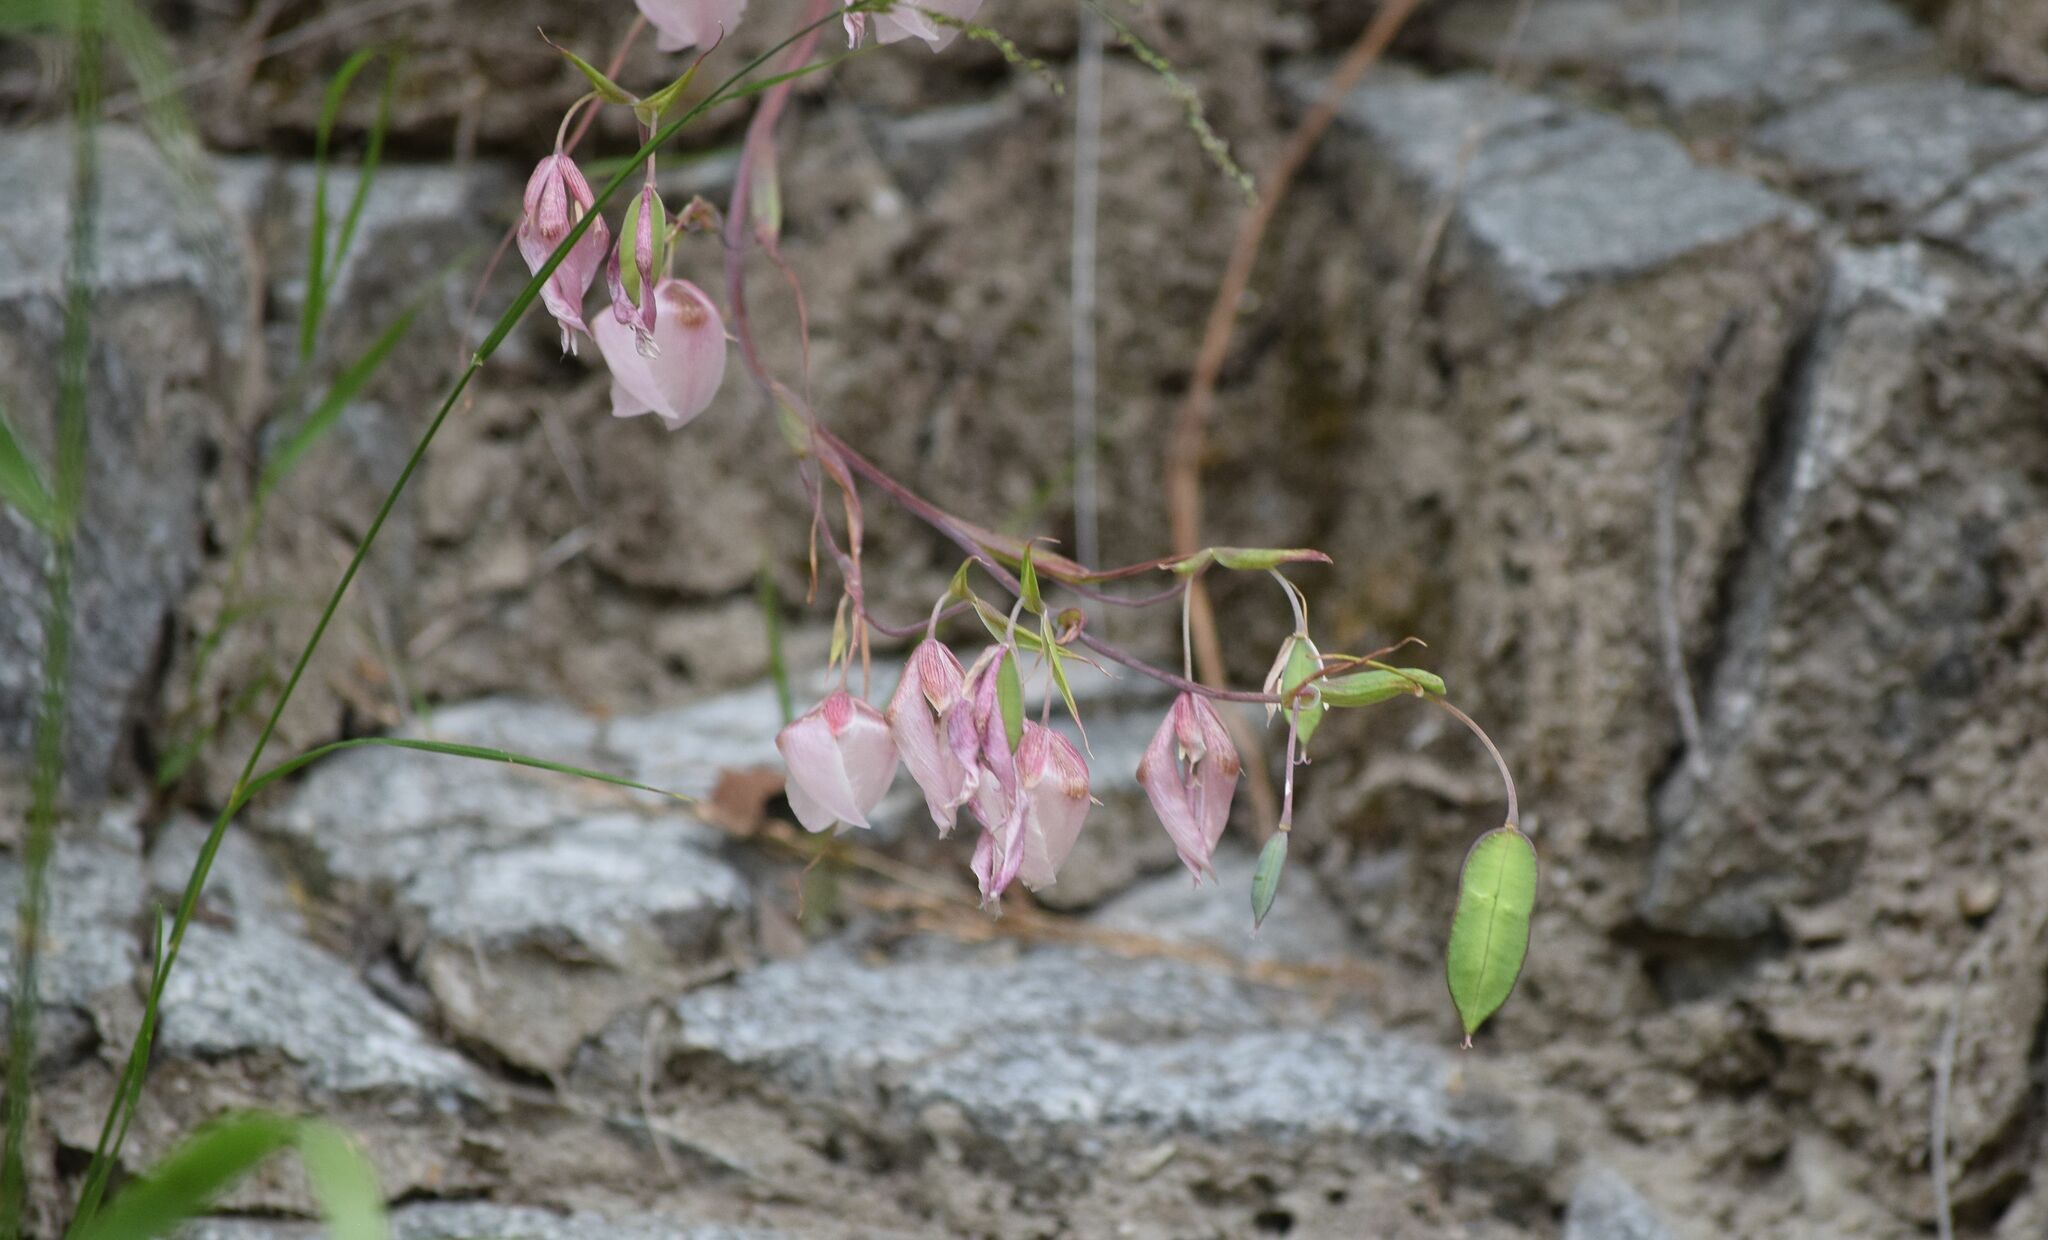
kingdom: Plantae
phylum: Tracheophyta
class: Liliopsida
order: Liliales
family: Liliaceae
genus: Calochortus
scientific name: Calochortus albus
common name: Fairy-lantern
